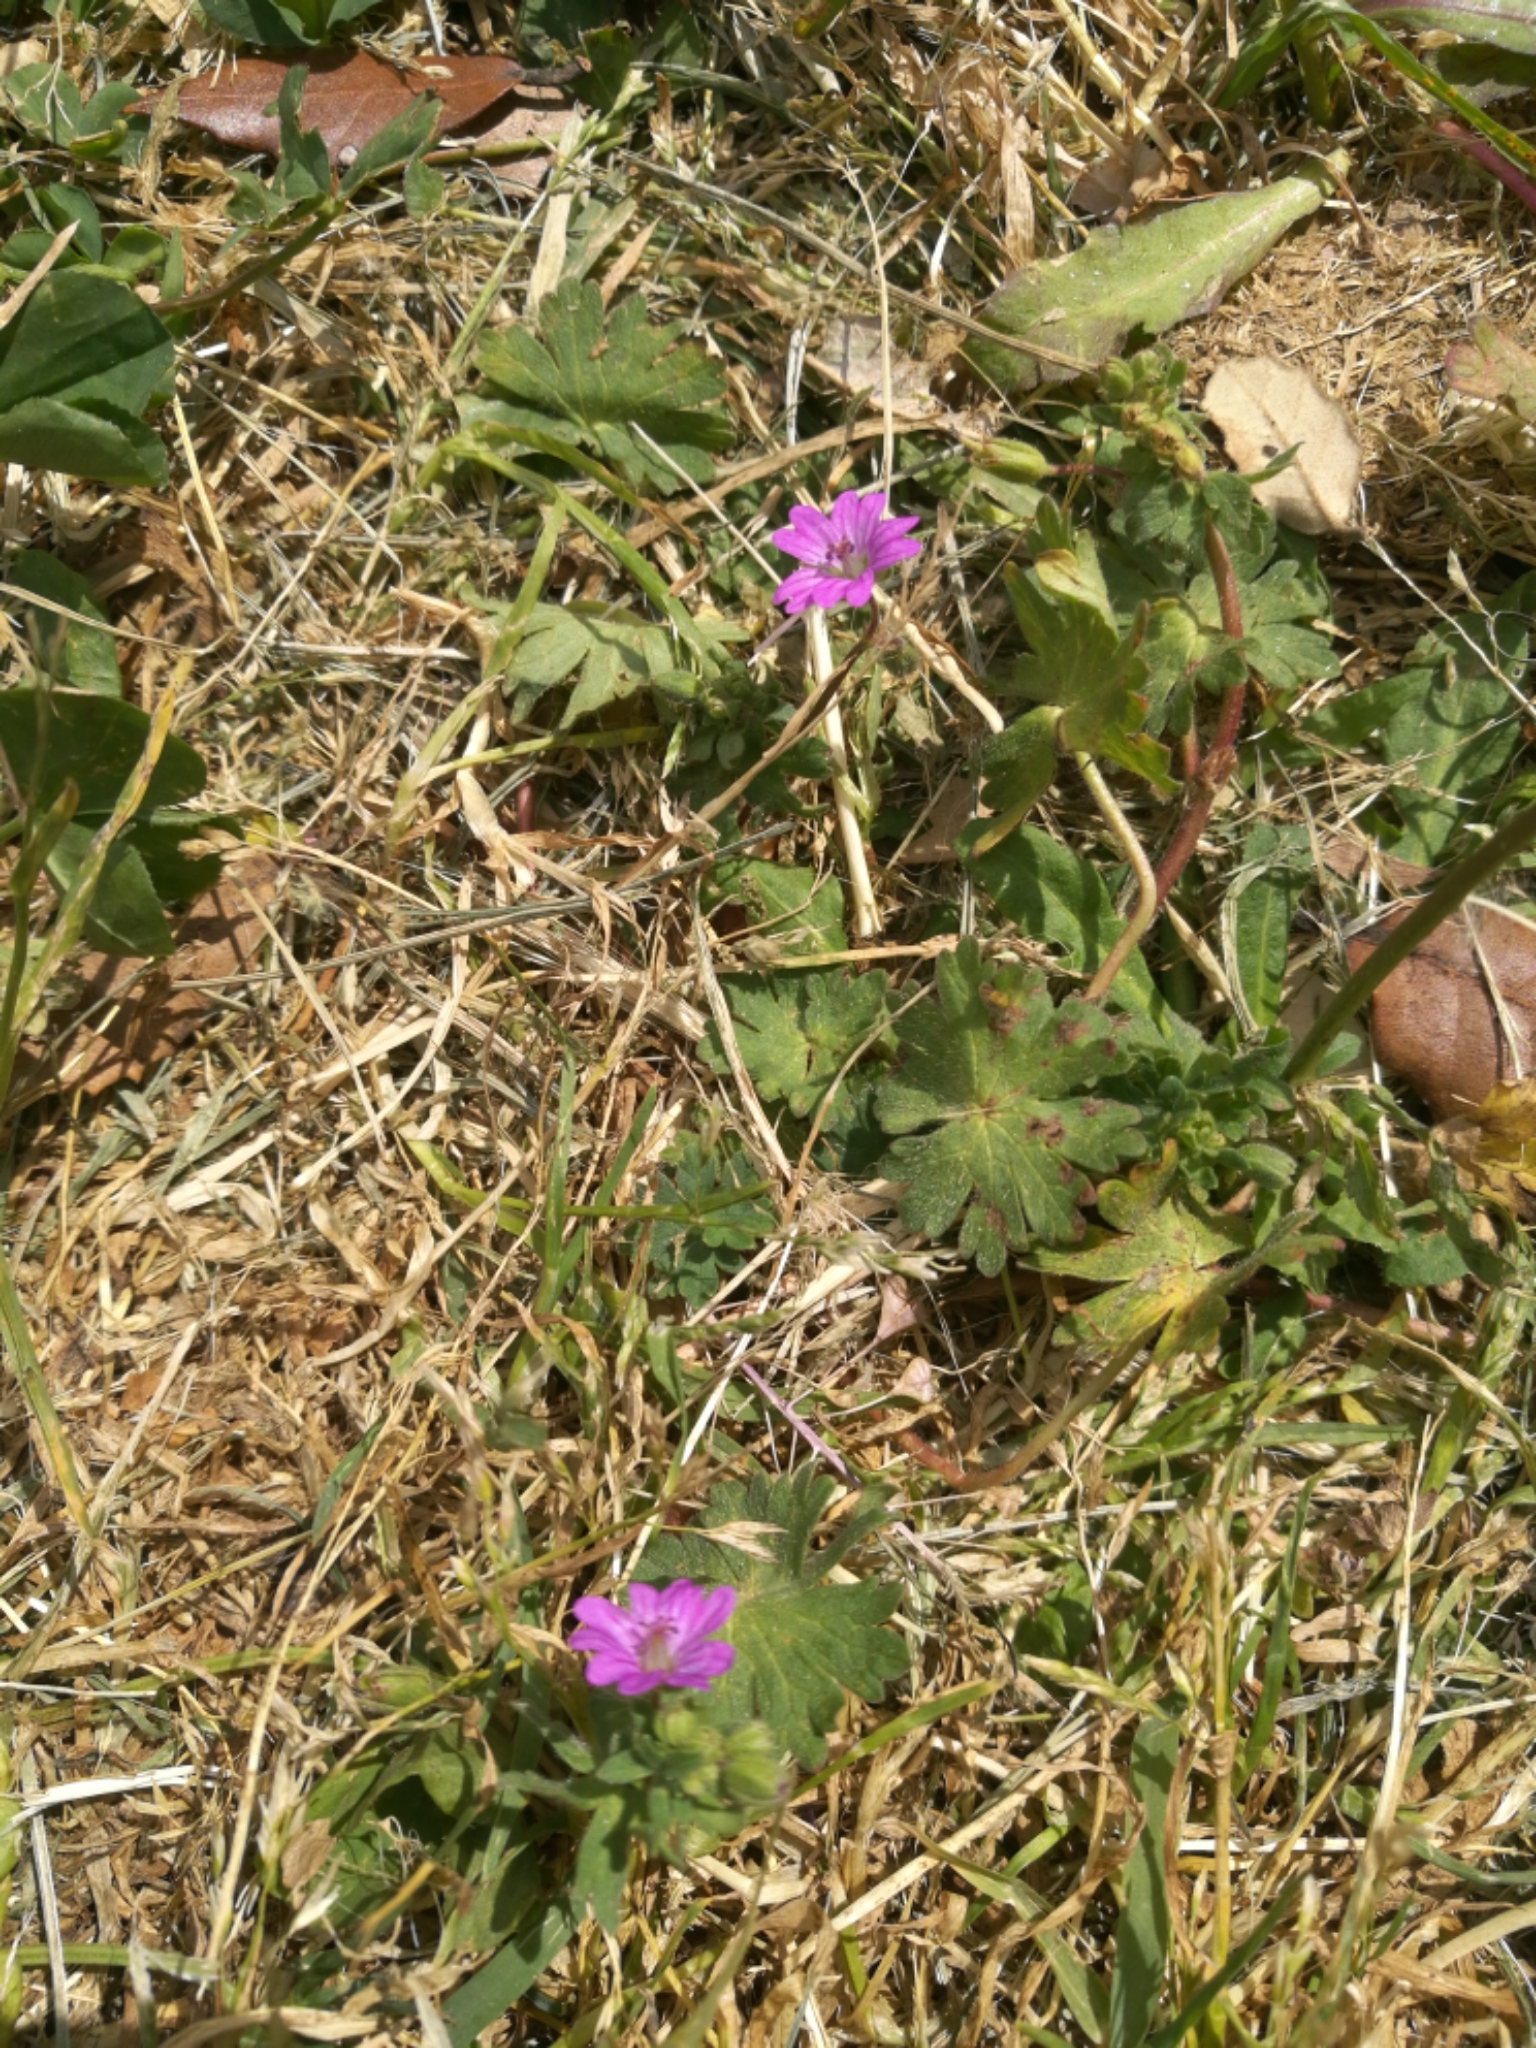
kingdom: Plantae
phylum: Tracheophyta
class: Magnoliopsida
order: Geraniales
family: Geraniaceae
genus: Geranium
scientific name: Geranium molle
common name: Dove's-foot crane's-bill
